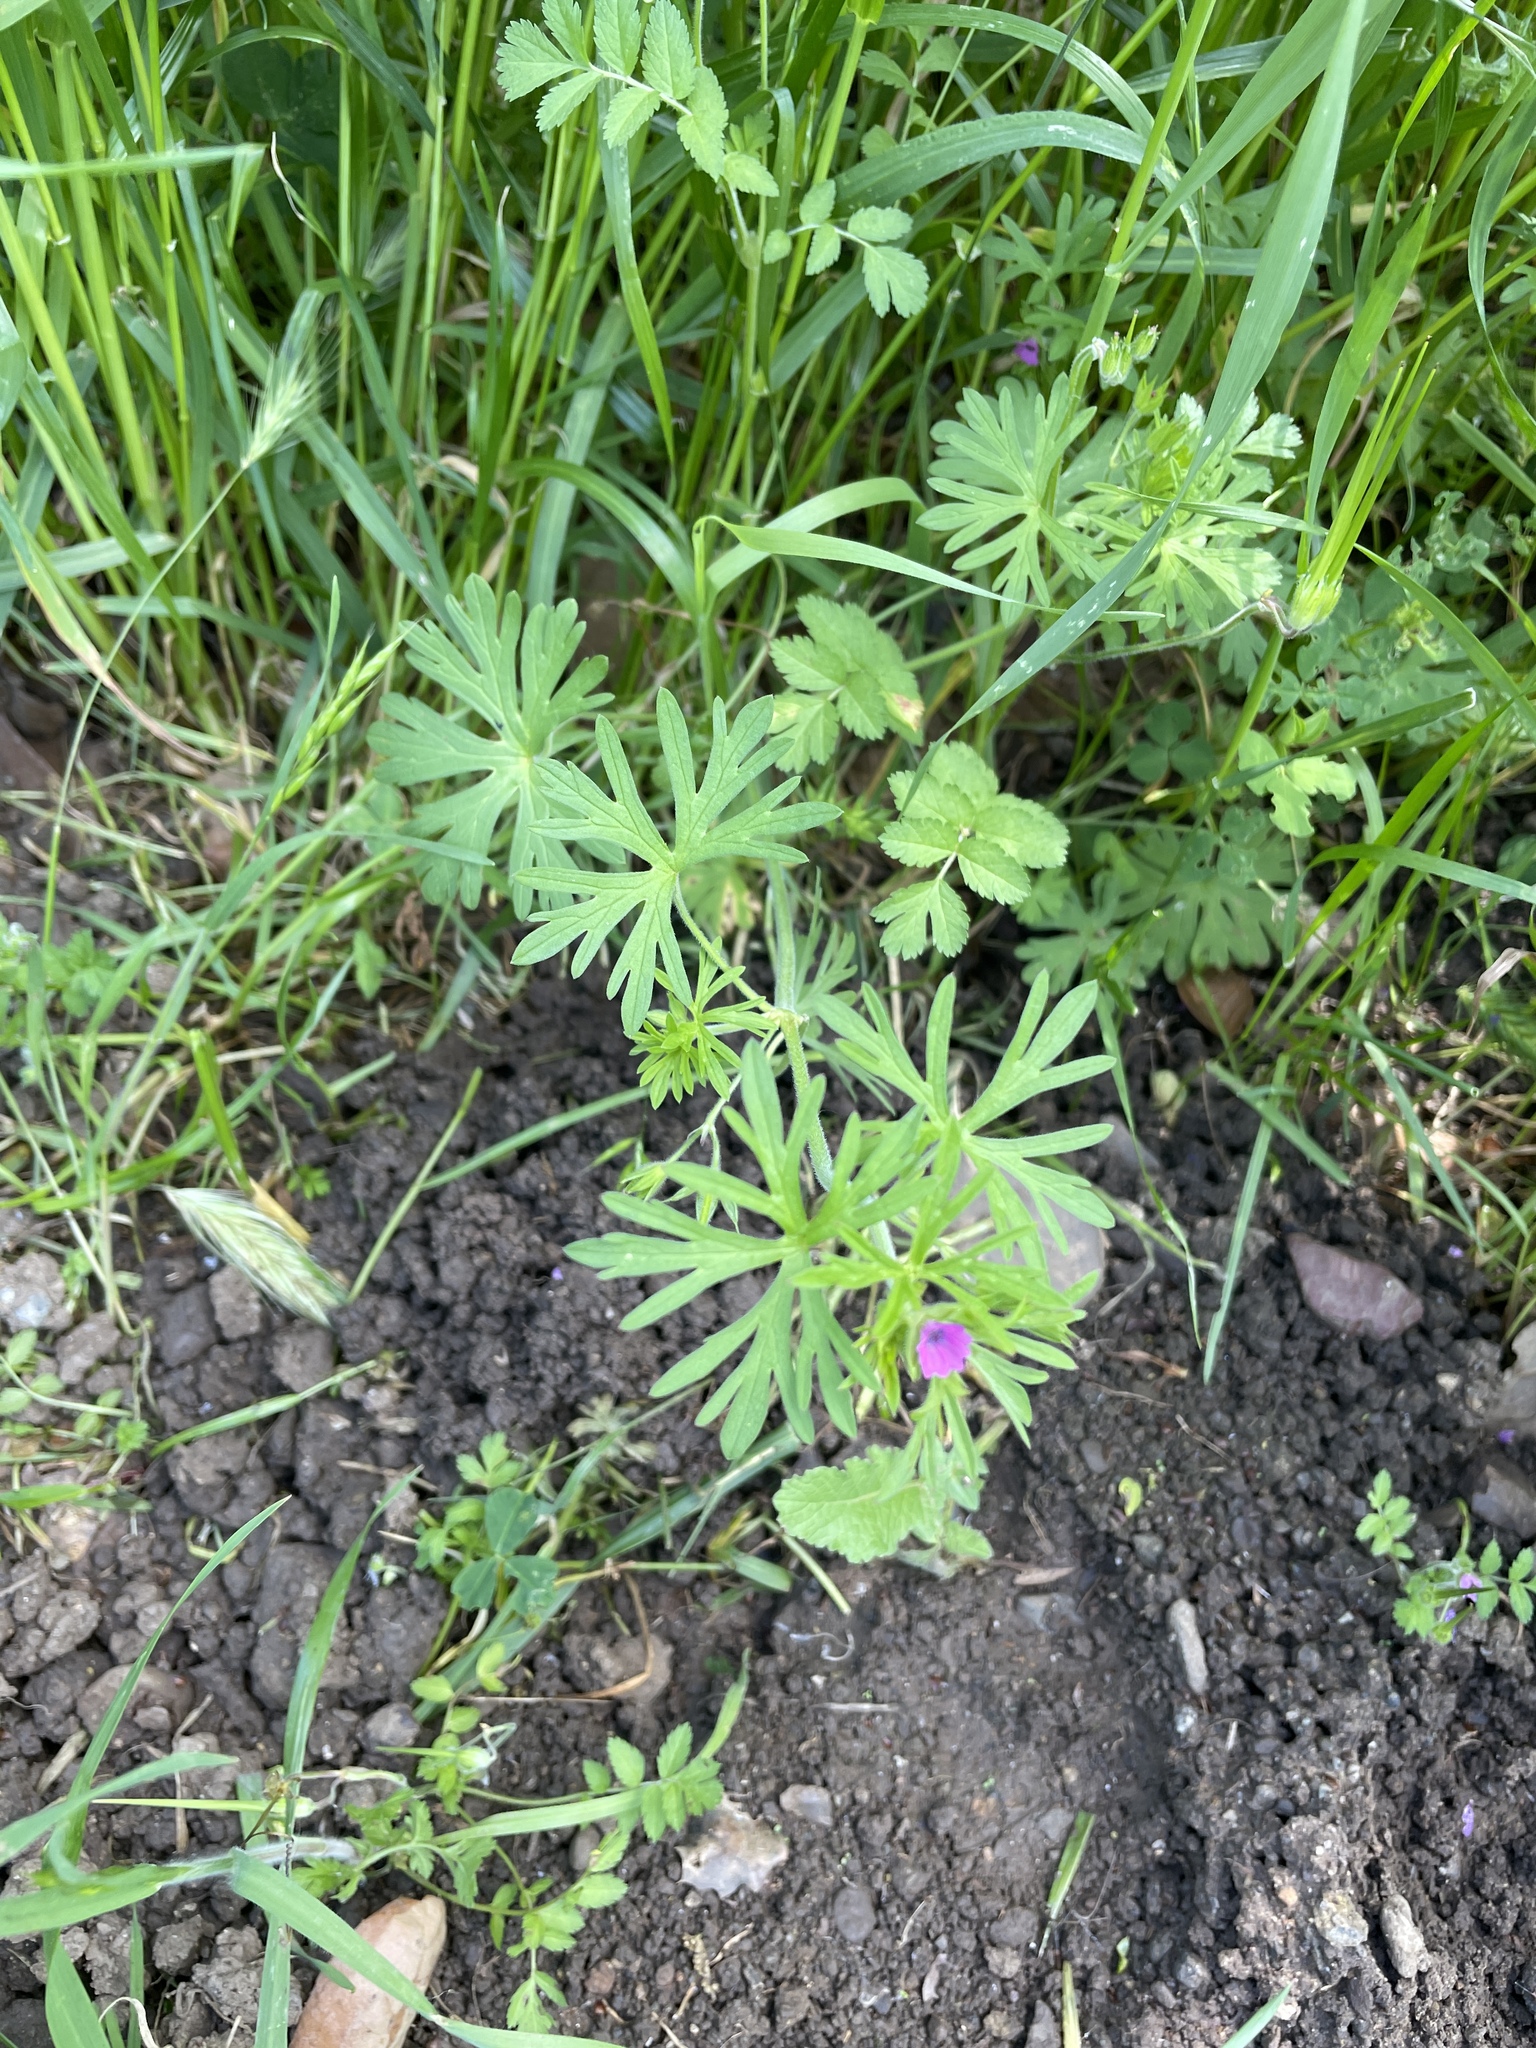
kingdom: Plantae
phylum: Tracheophyta
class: Magnoliopsida
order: Geraniales
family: Geraniaceae
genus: Geranium
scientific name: Geranium dissectum
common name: Cut-leaved crane's-bill
